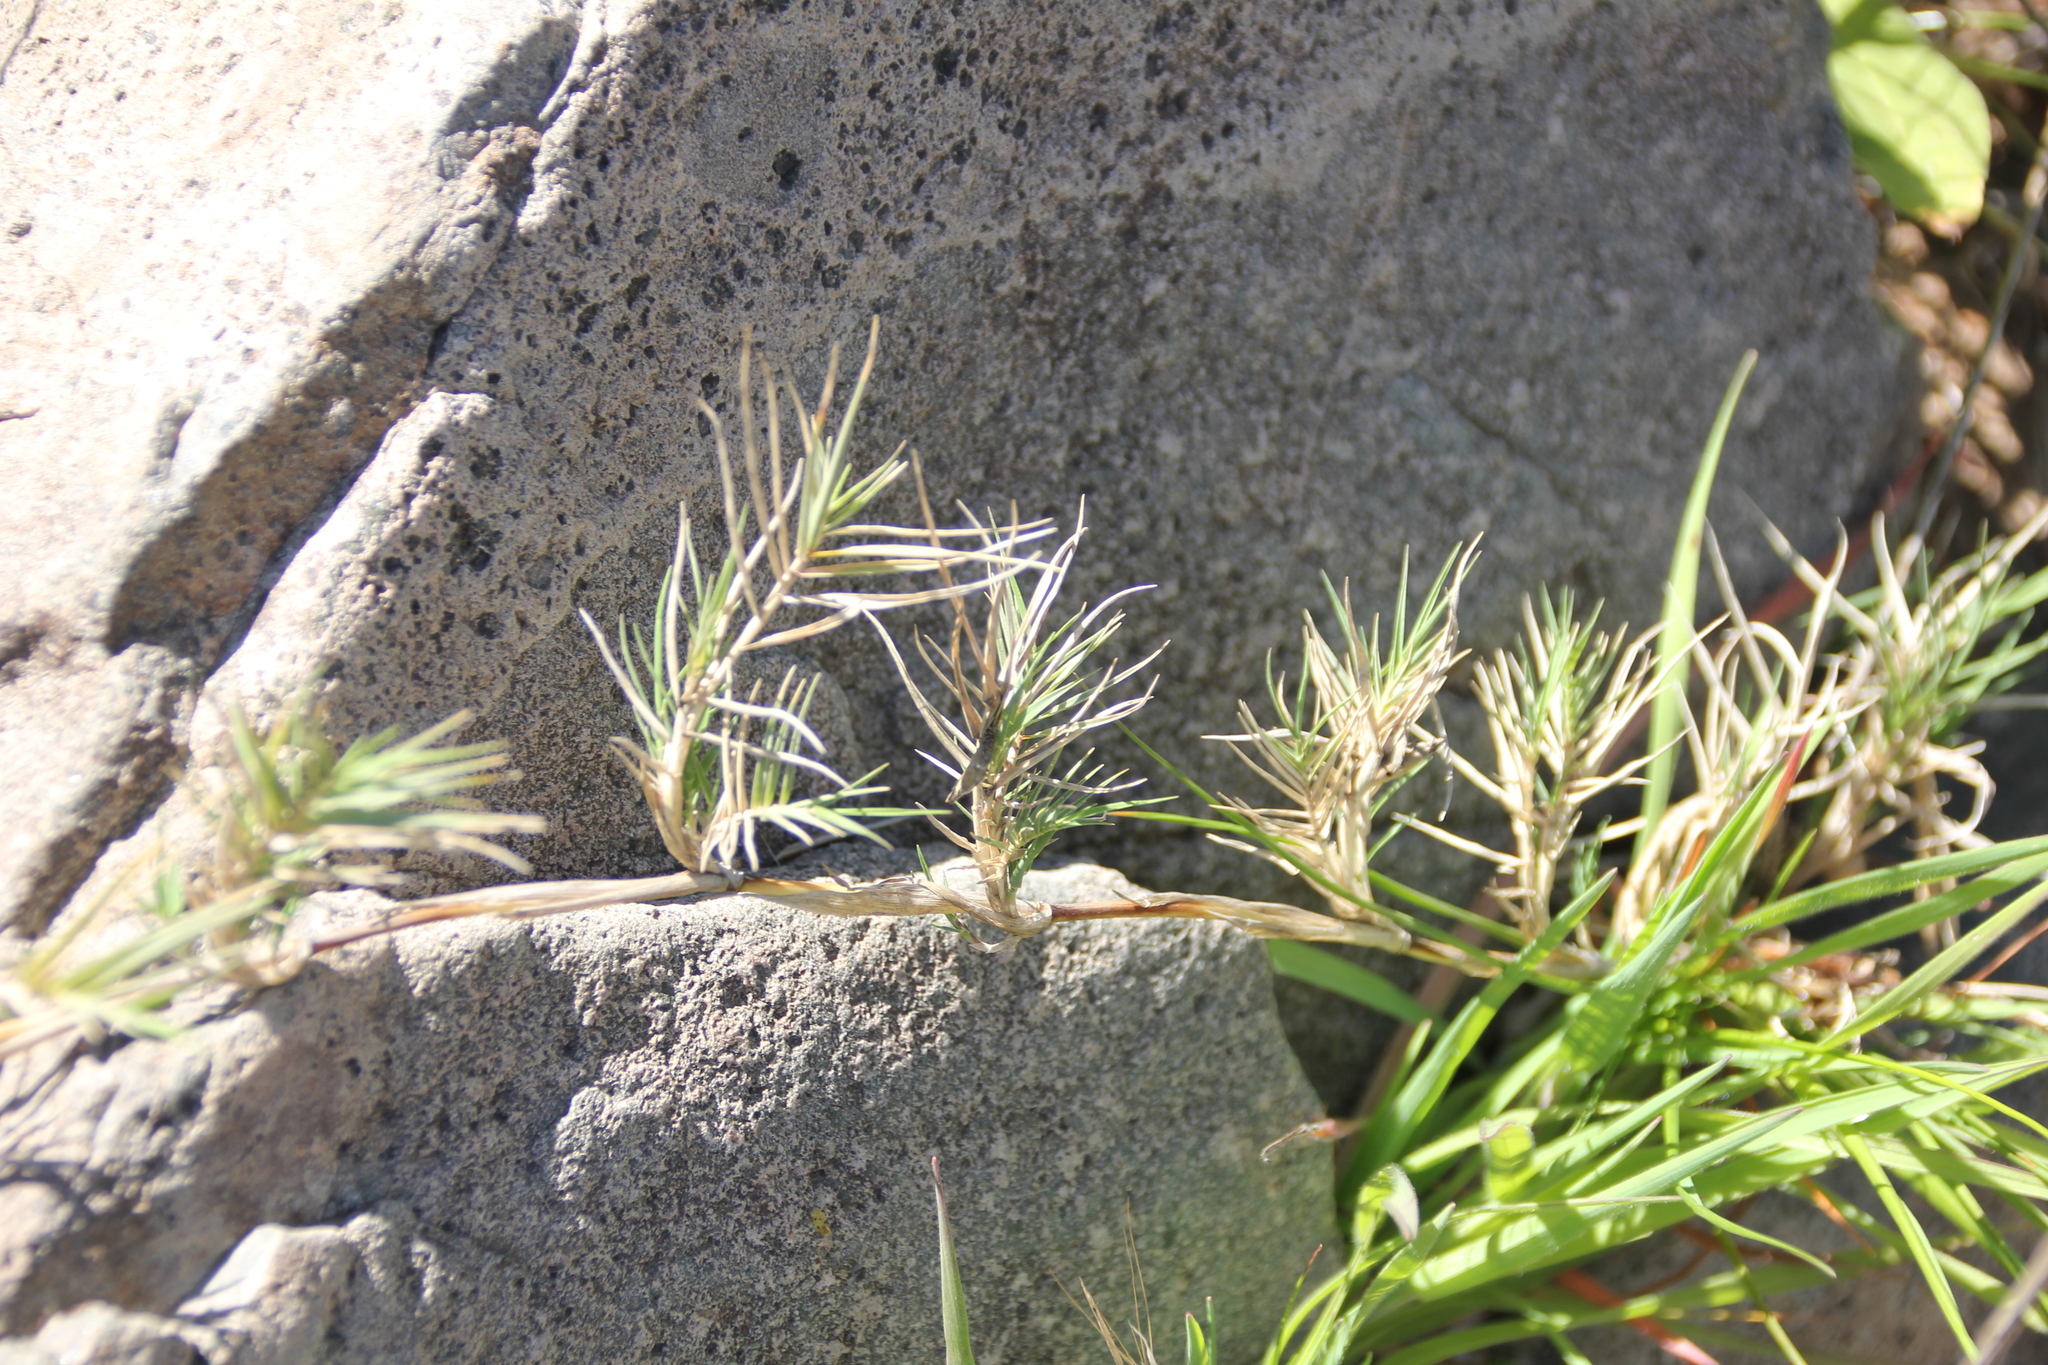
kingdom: Plantae
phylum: Tracheophyta
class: Liliopsida
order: Poales
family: Poaceae
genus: Distichlis
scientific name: Distichlis spicata
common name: Saltgrass
